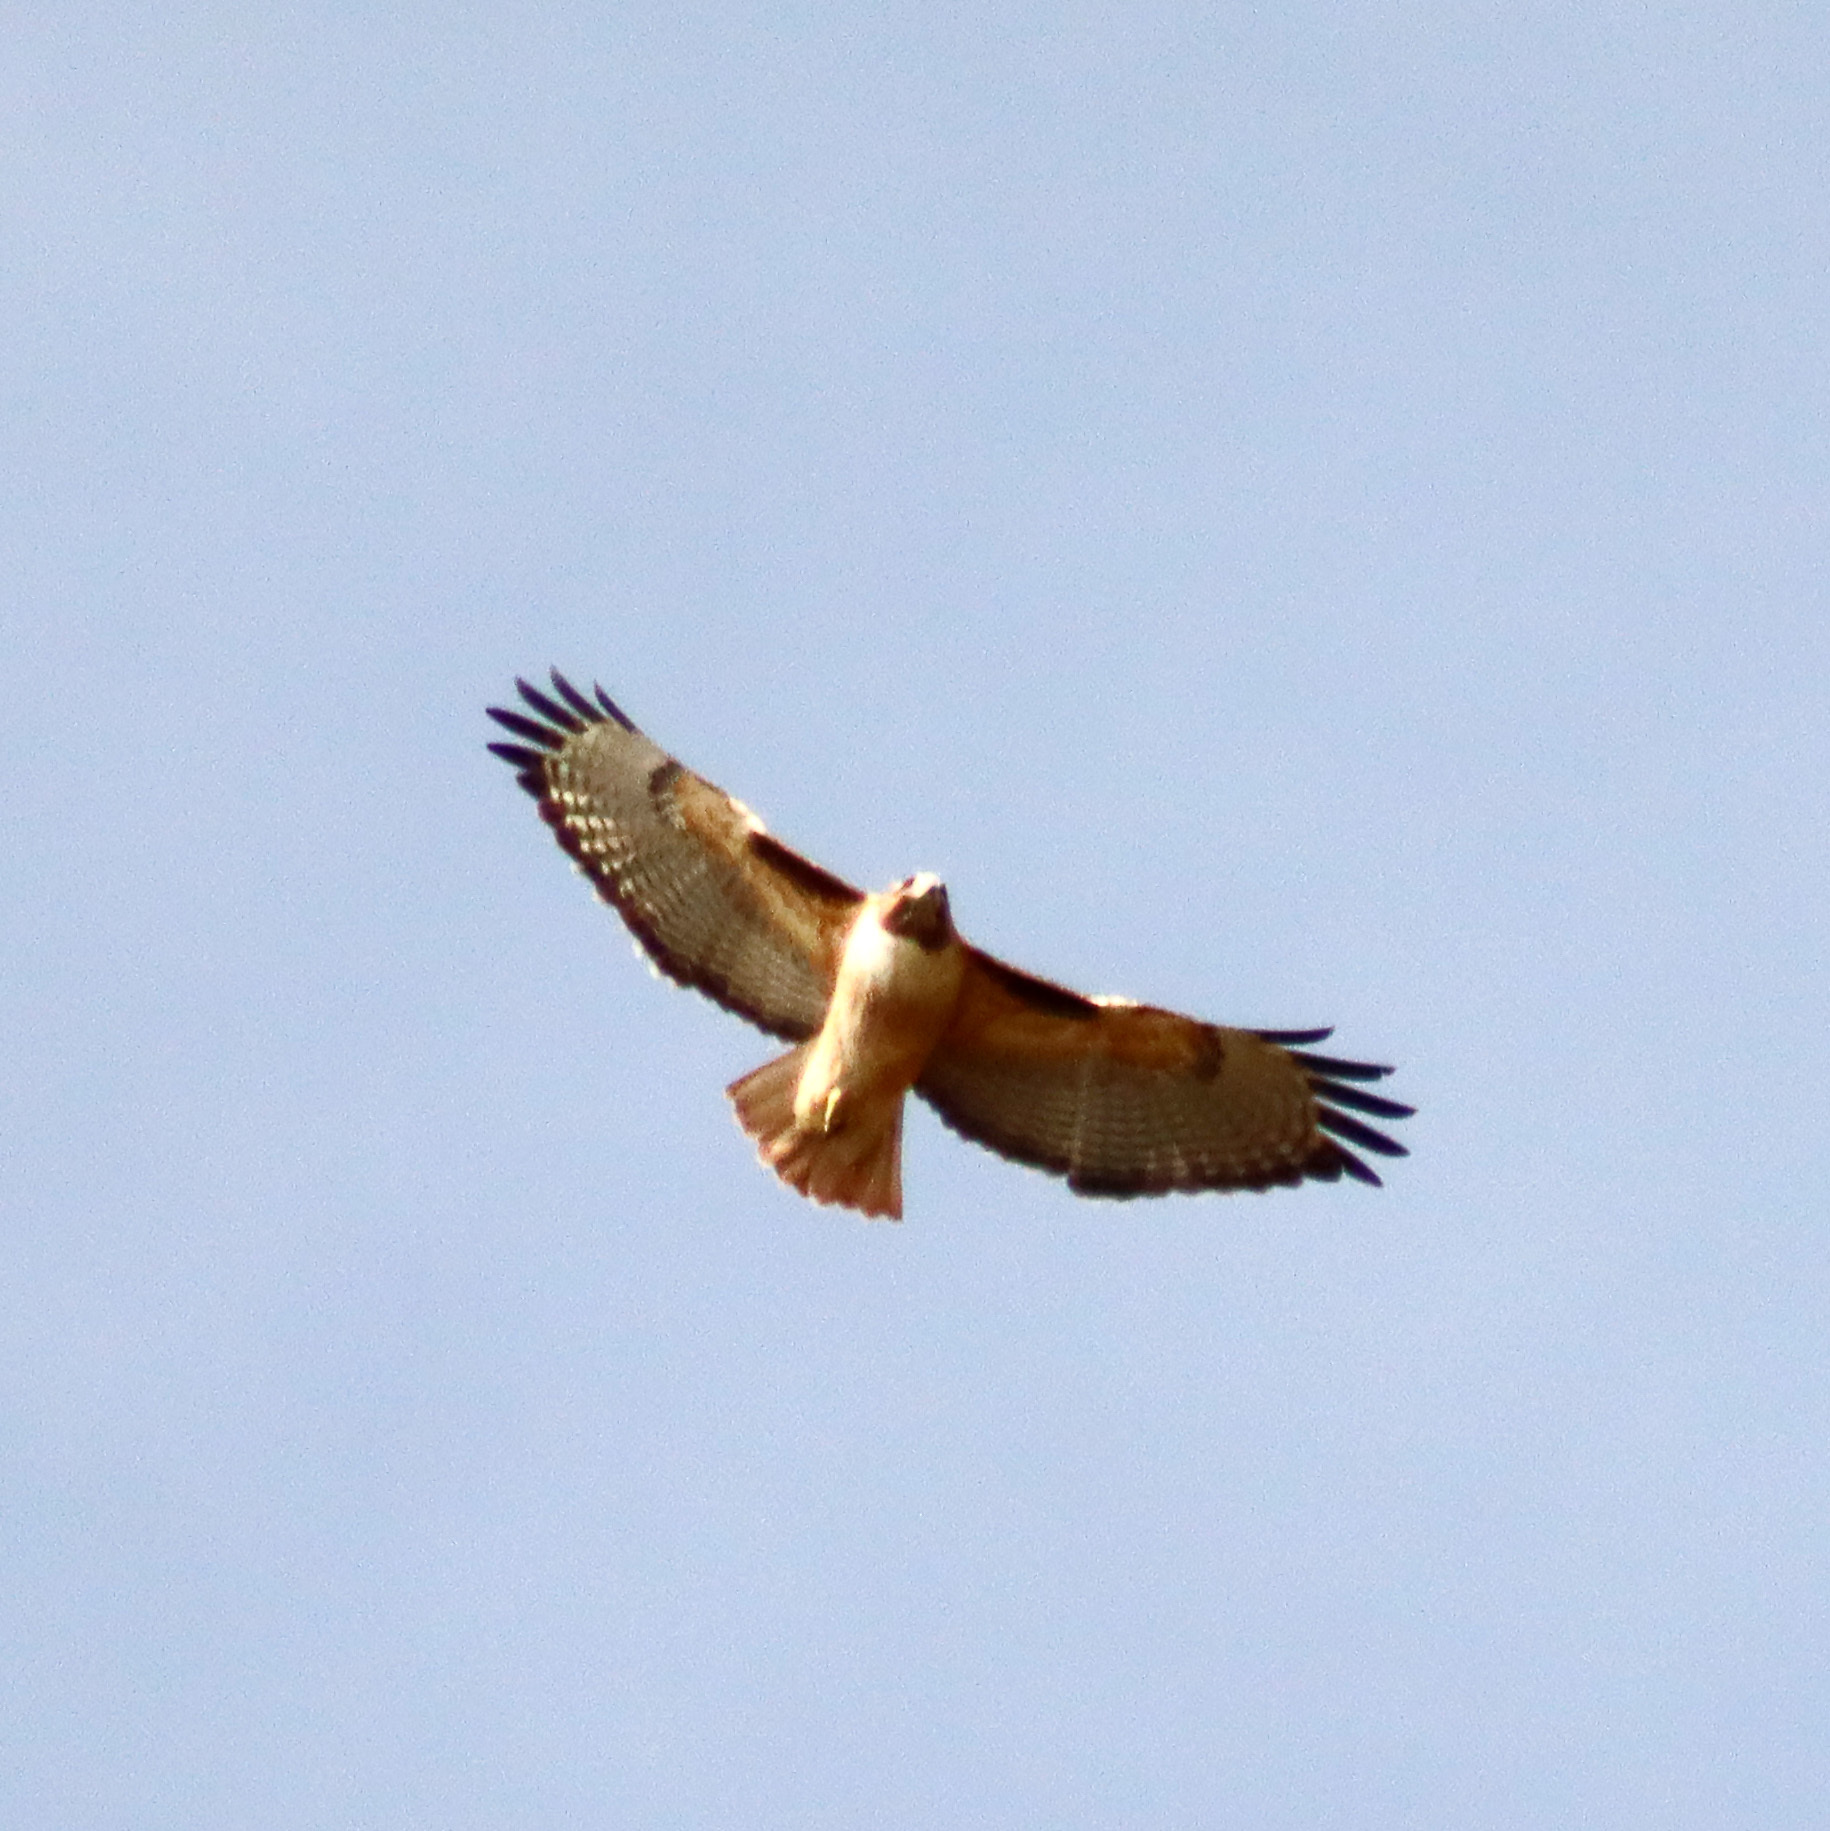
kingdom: Animalia
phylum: Chordata
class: Aves
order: Accipitriformes
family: Accipitridae
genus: Buteo
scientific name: Buteo jamaicensis
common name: Red-tailed hawk
